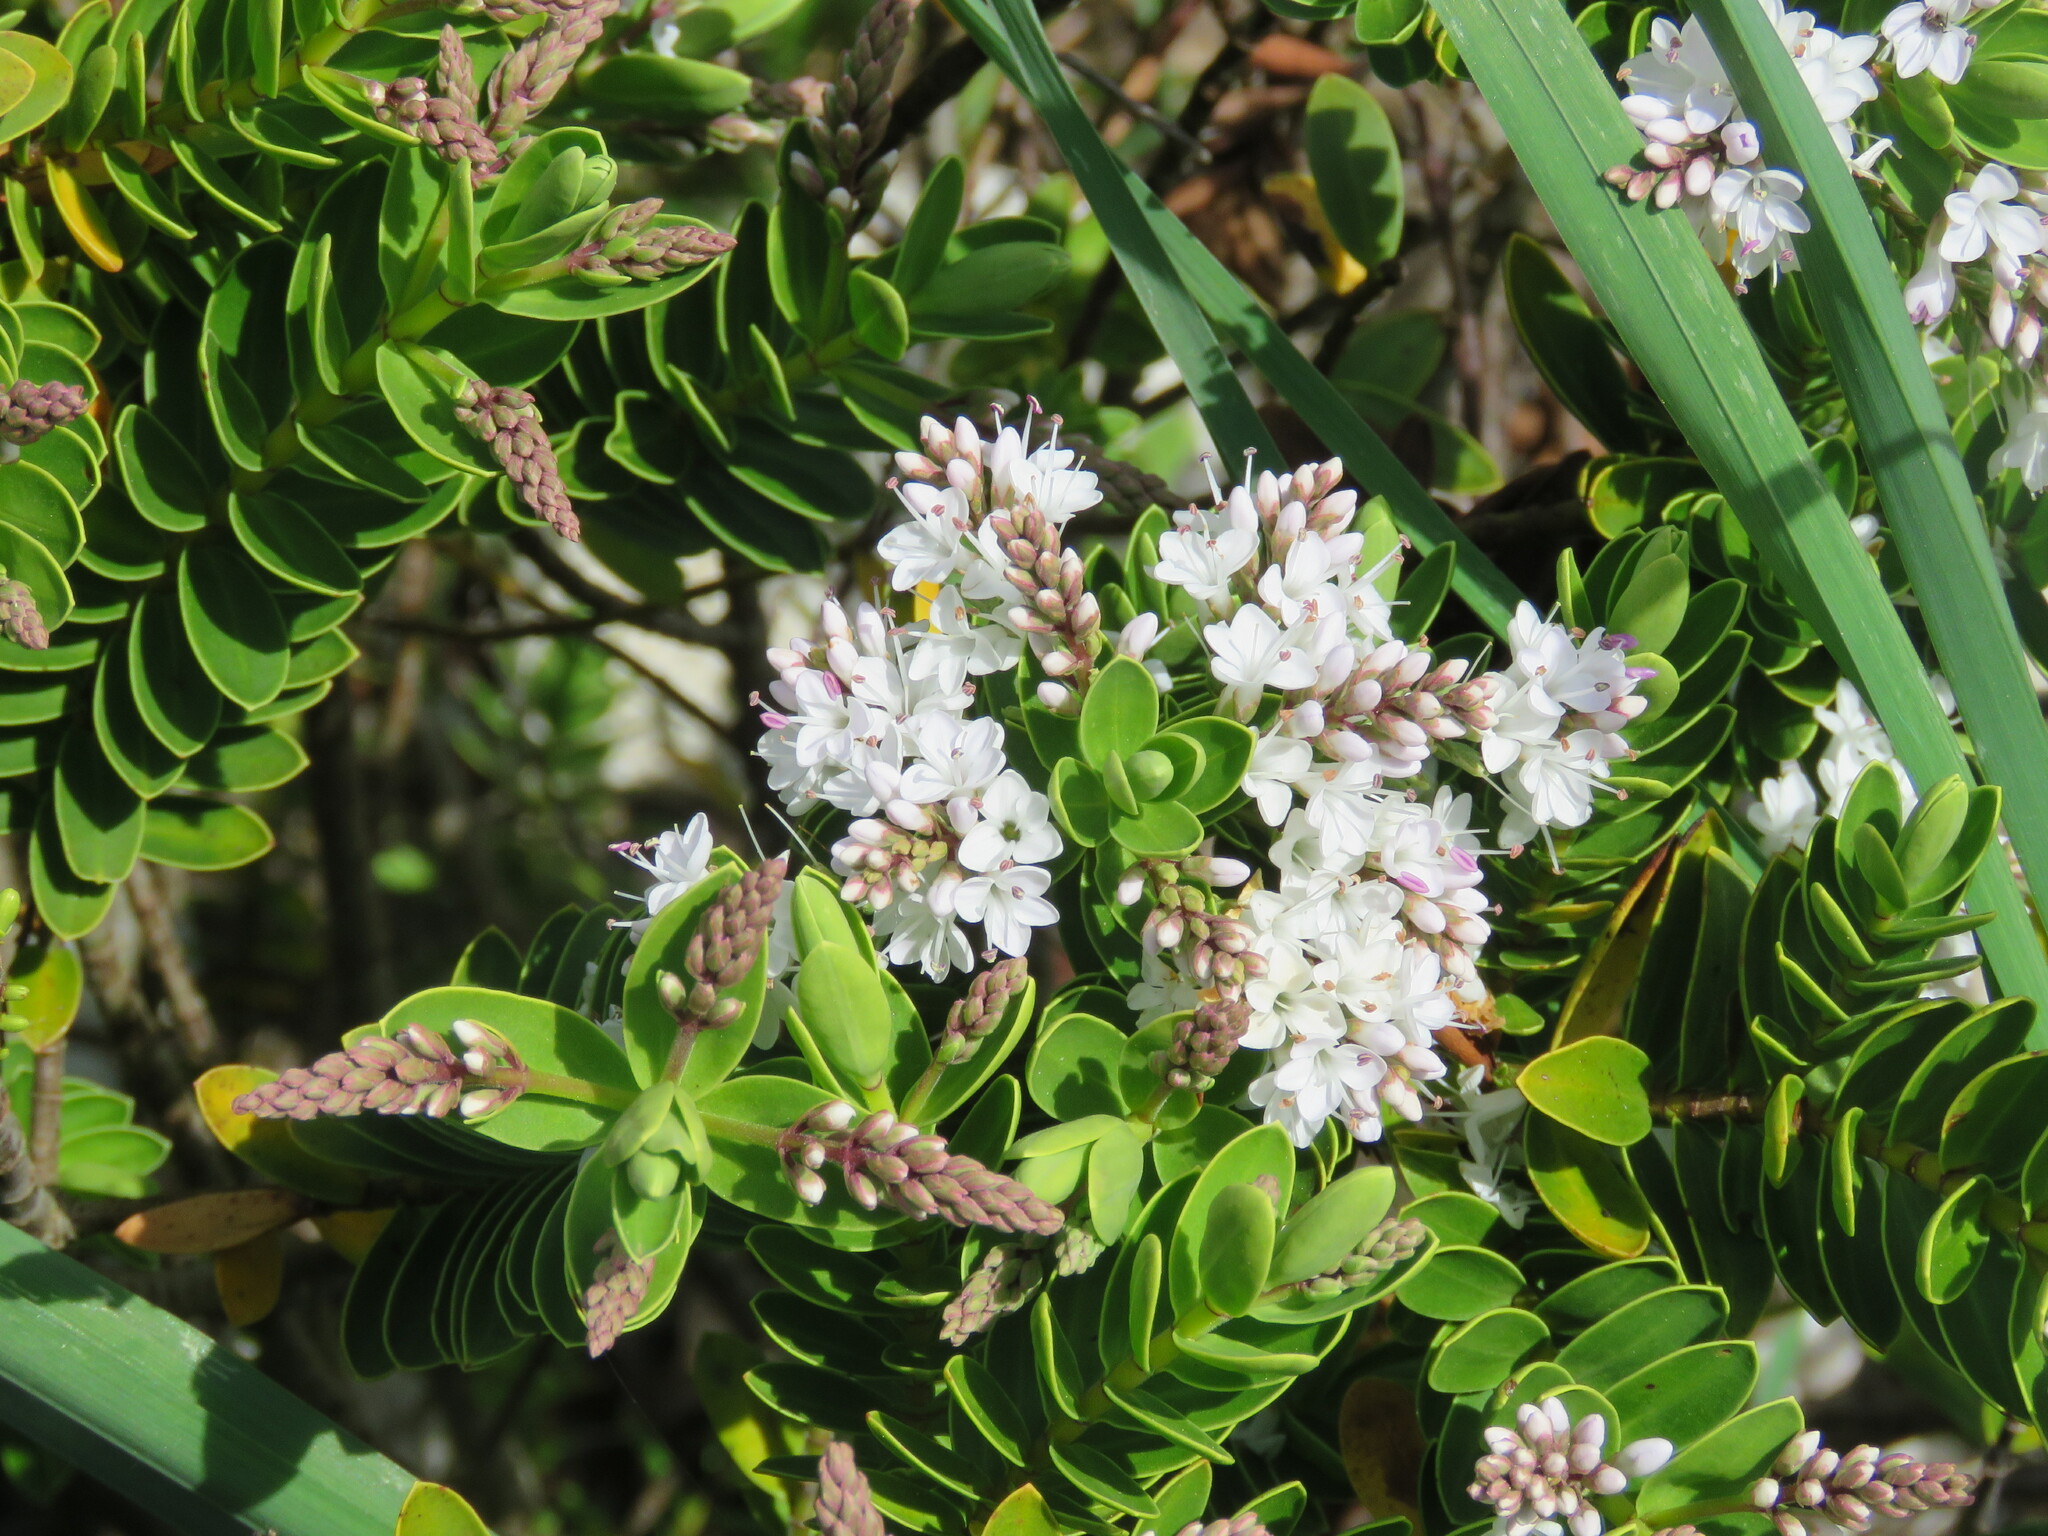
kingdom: Plantae
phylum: Tracheophyta
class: Magnoliopsida
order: Lamiales
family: Plantaginaceae
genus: Veronica
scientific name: Veronica albicans
